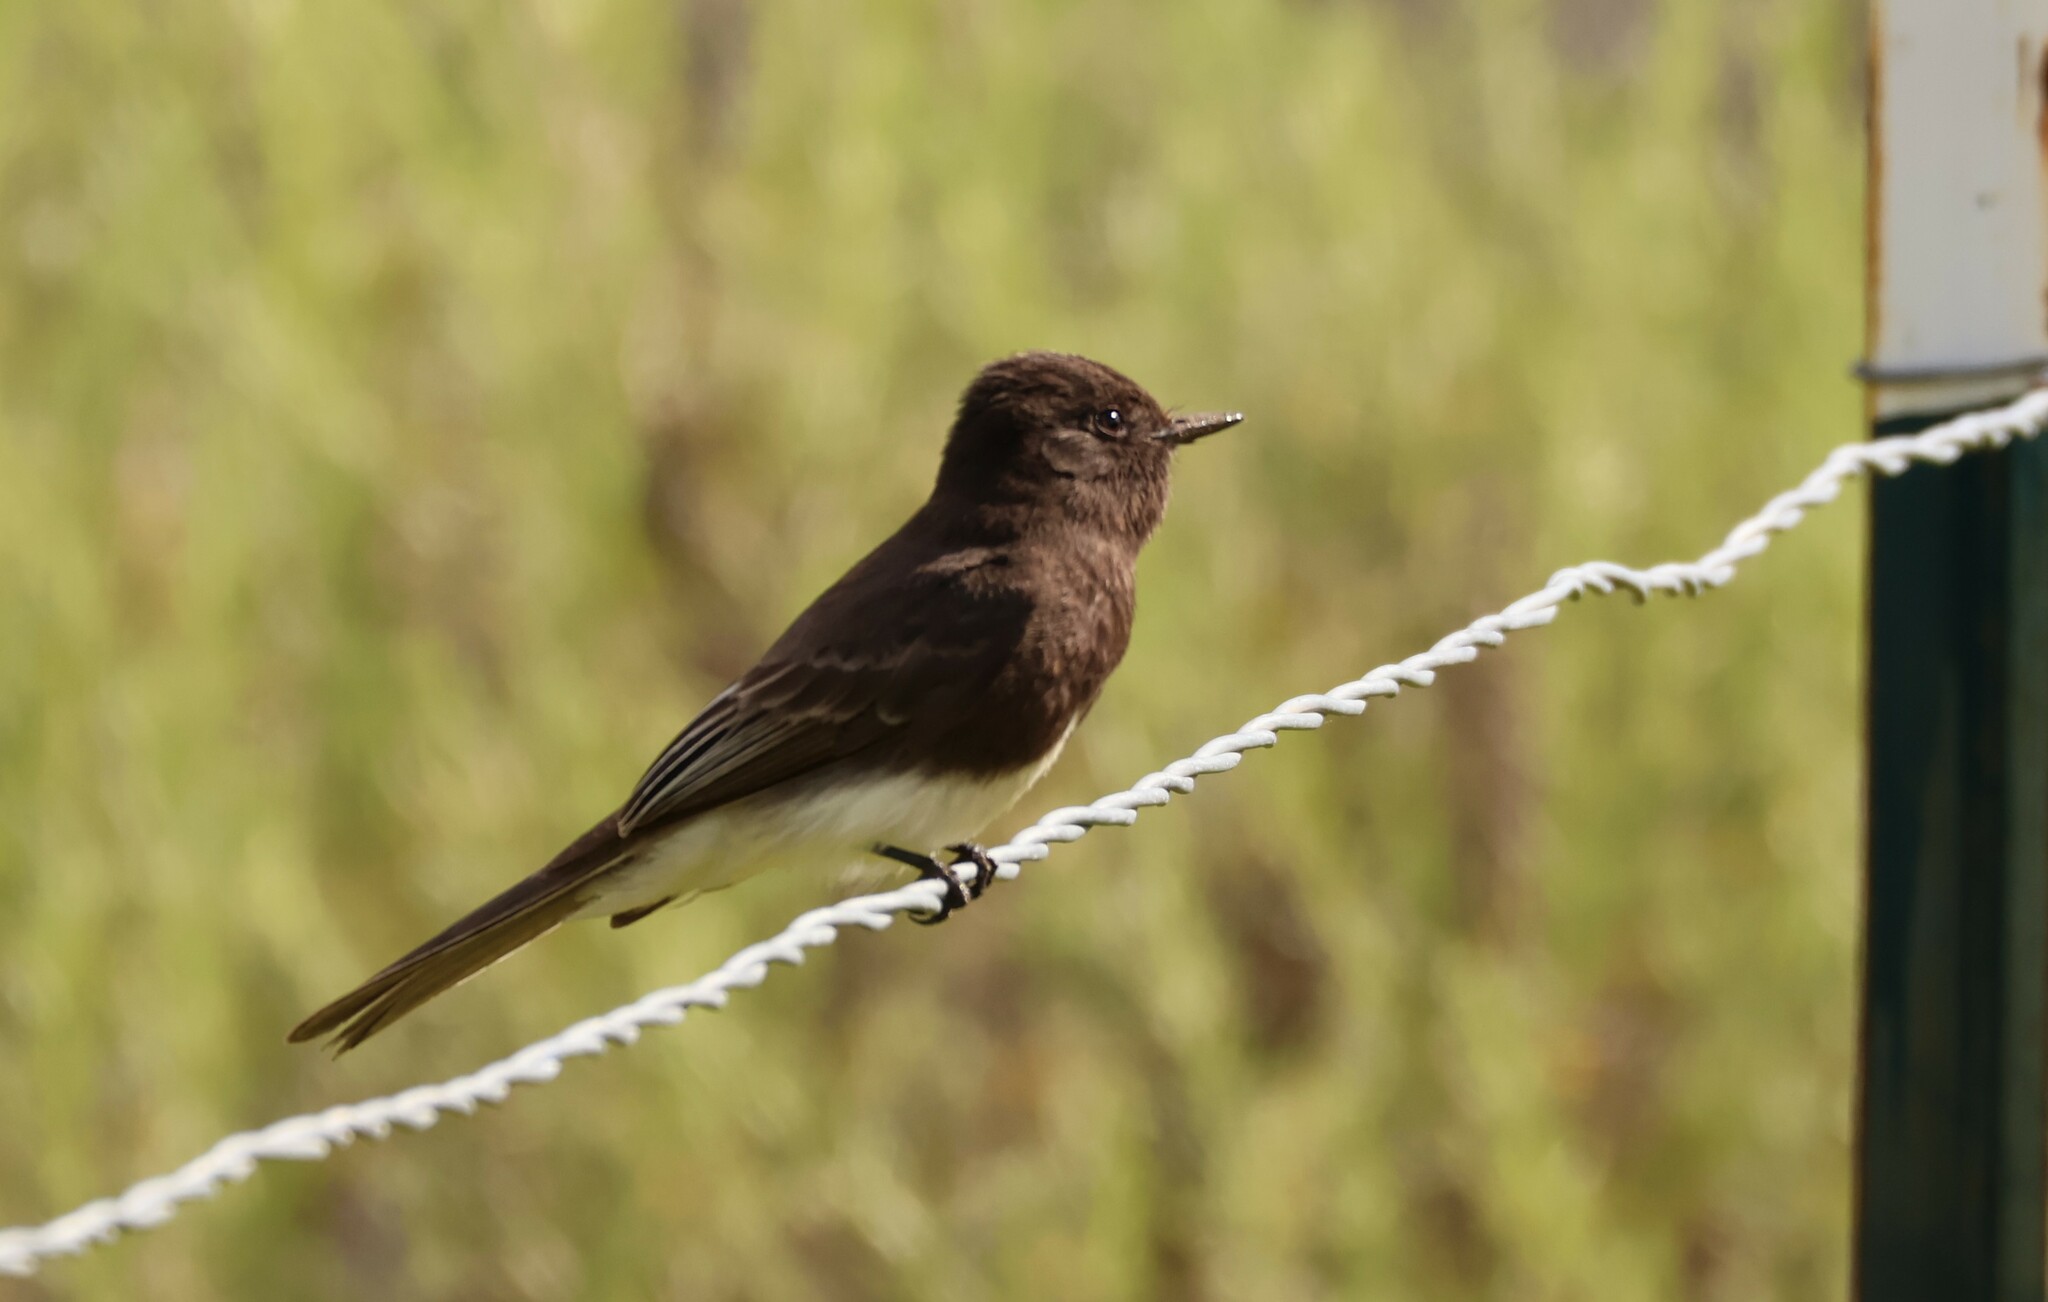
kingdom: Animalia
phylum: Chordata
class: Aves
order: Passeriformes
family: Tyrannidae
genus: Sayornis
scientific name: Sayornis nigricans
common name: Black phoebe
